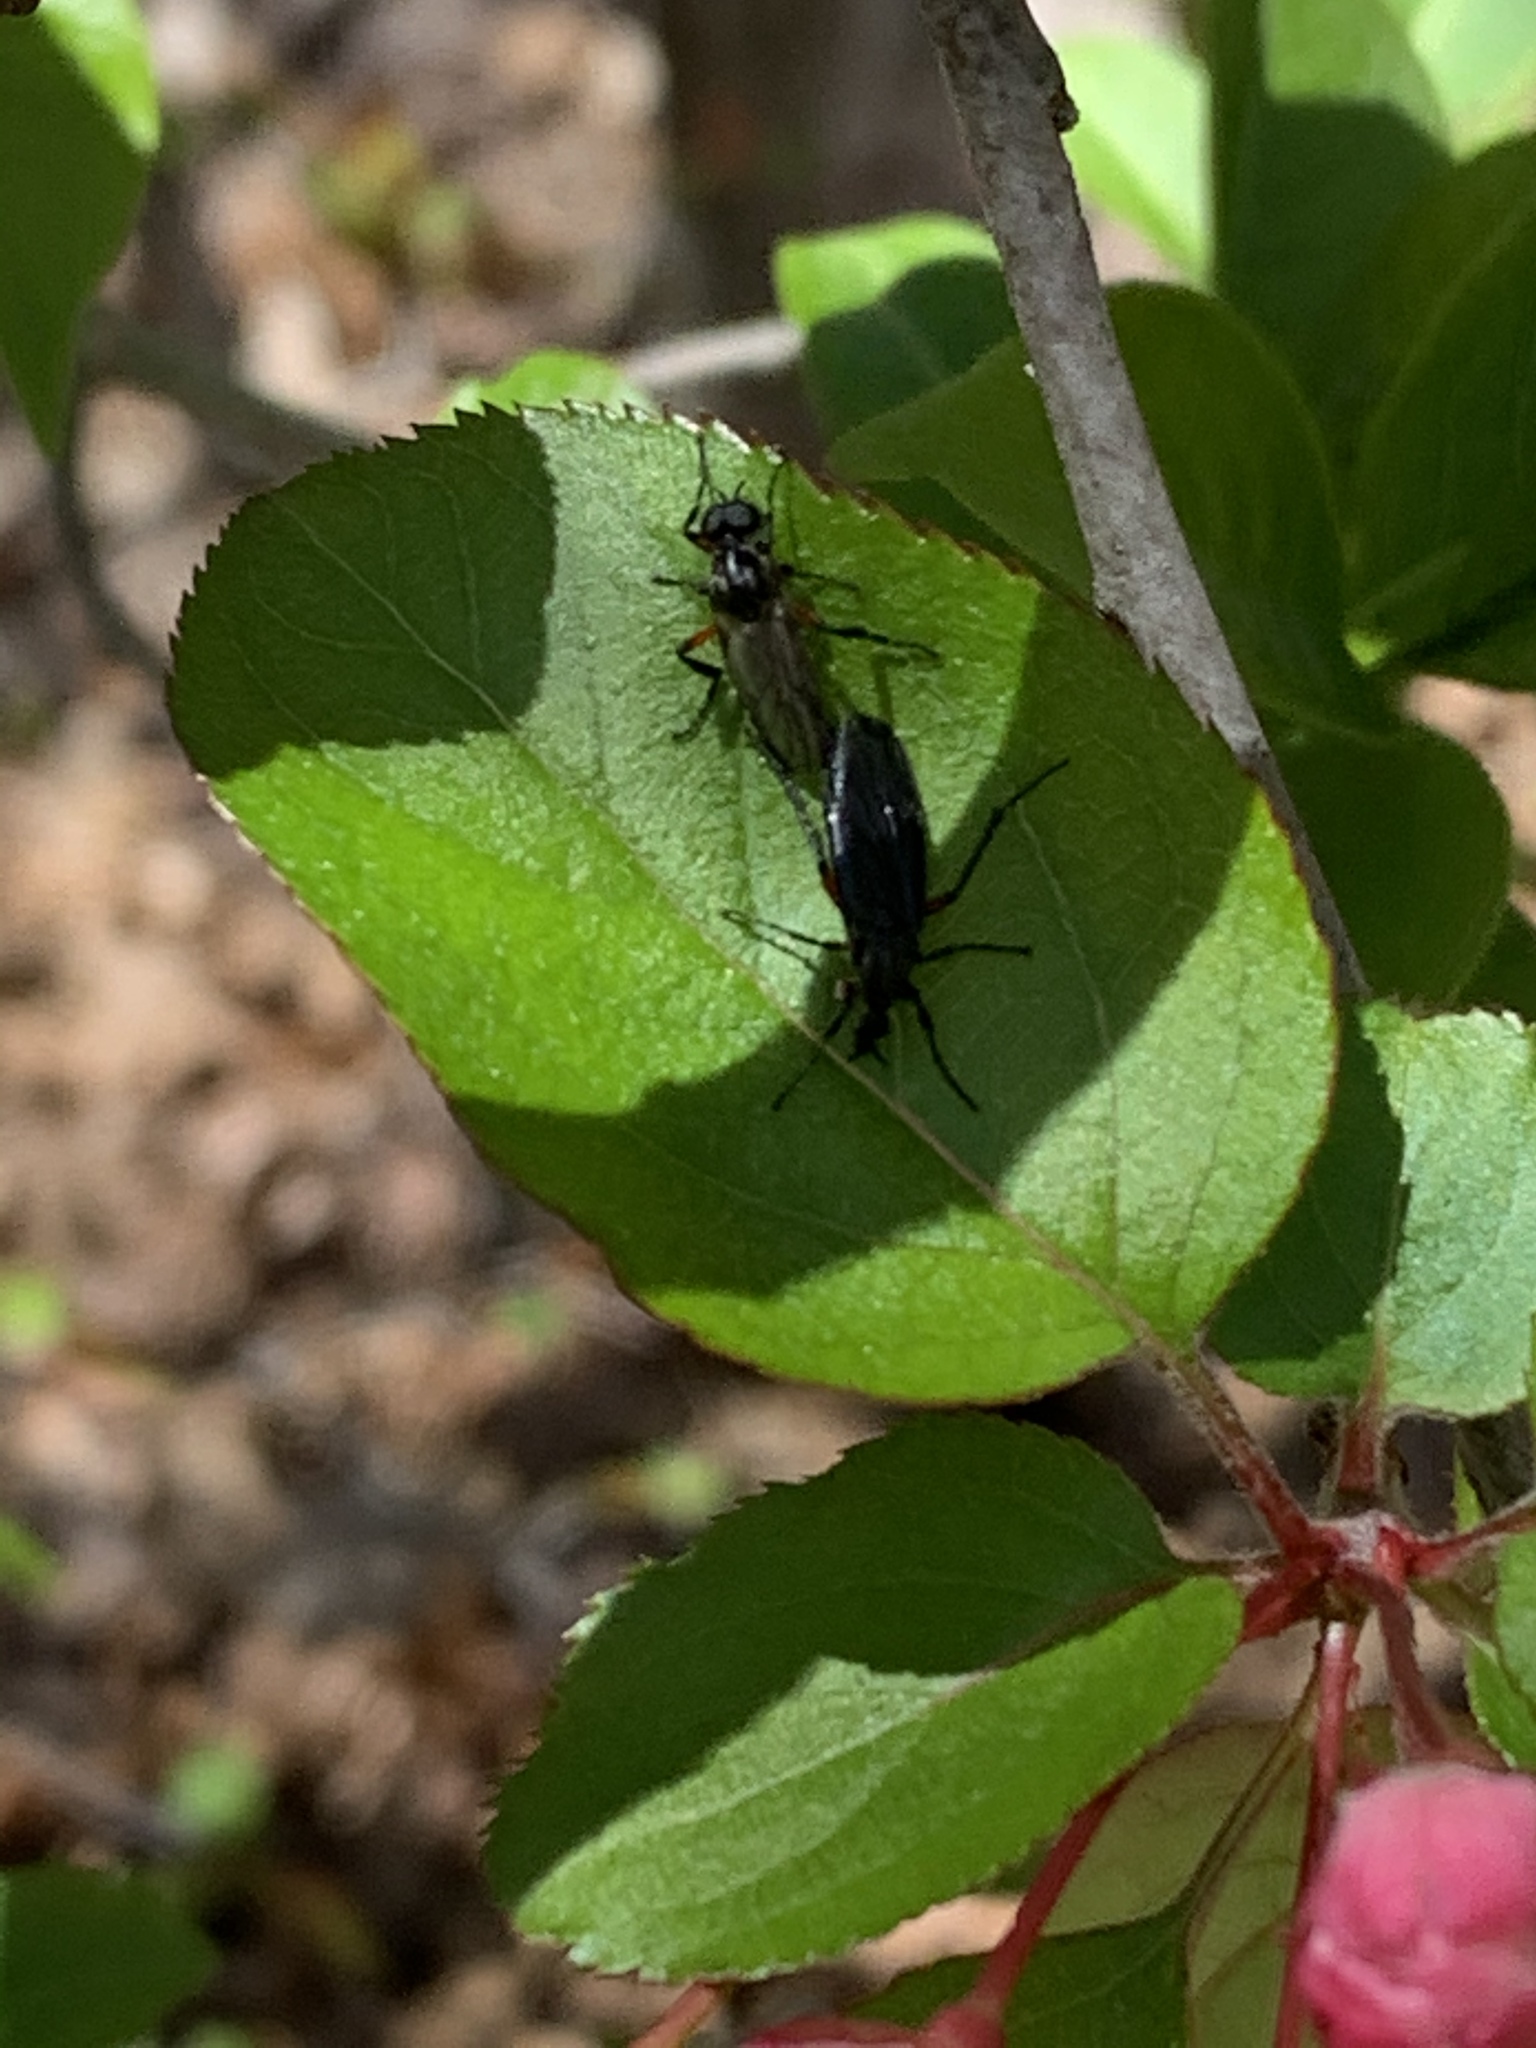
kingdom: Animalia
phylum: Arthropoda
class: Insecta
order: Diptera
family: Bibionidae
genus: Bibio
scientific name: Bibio
